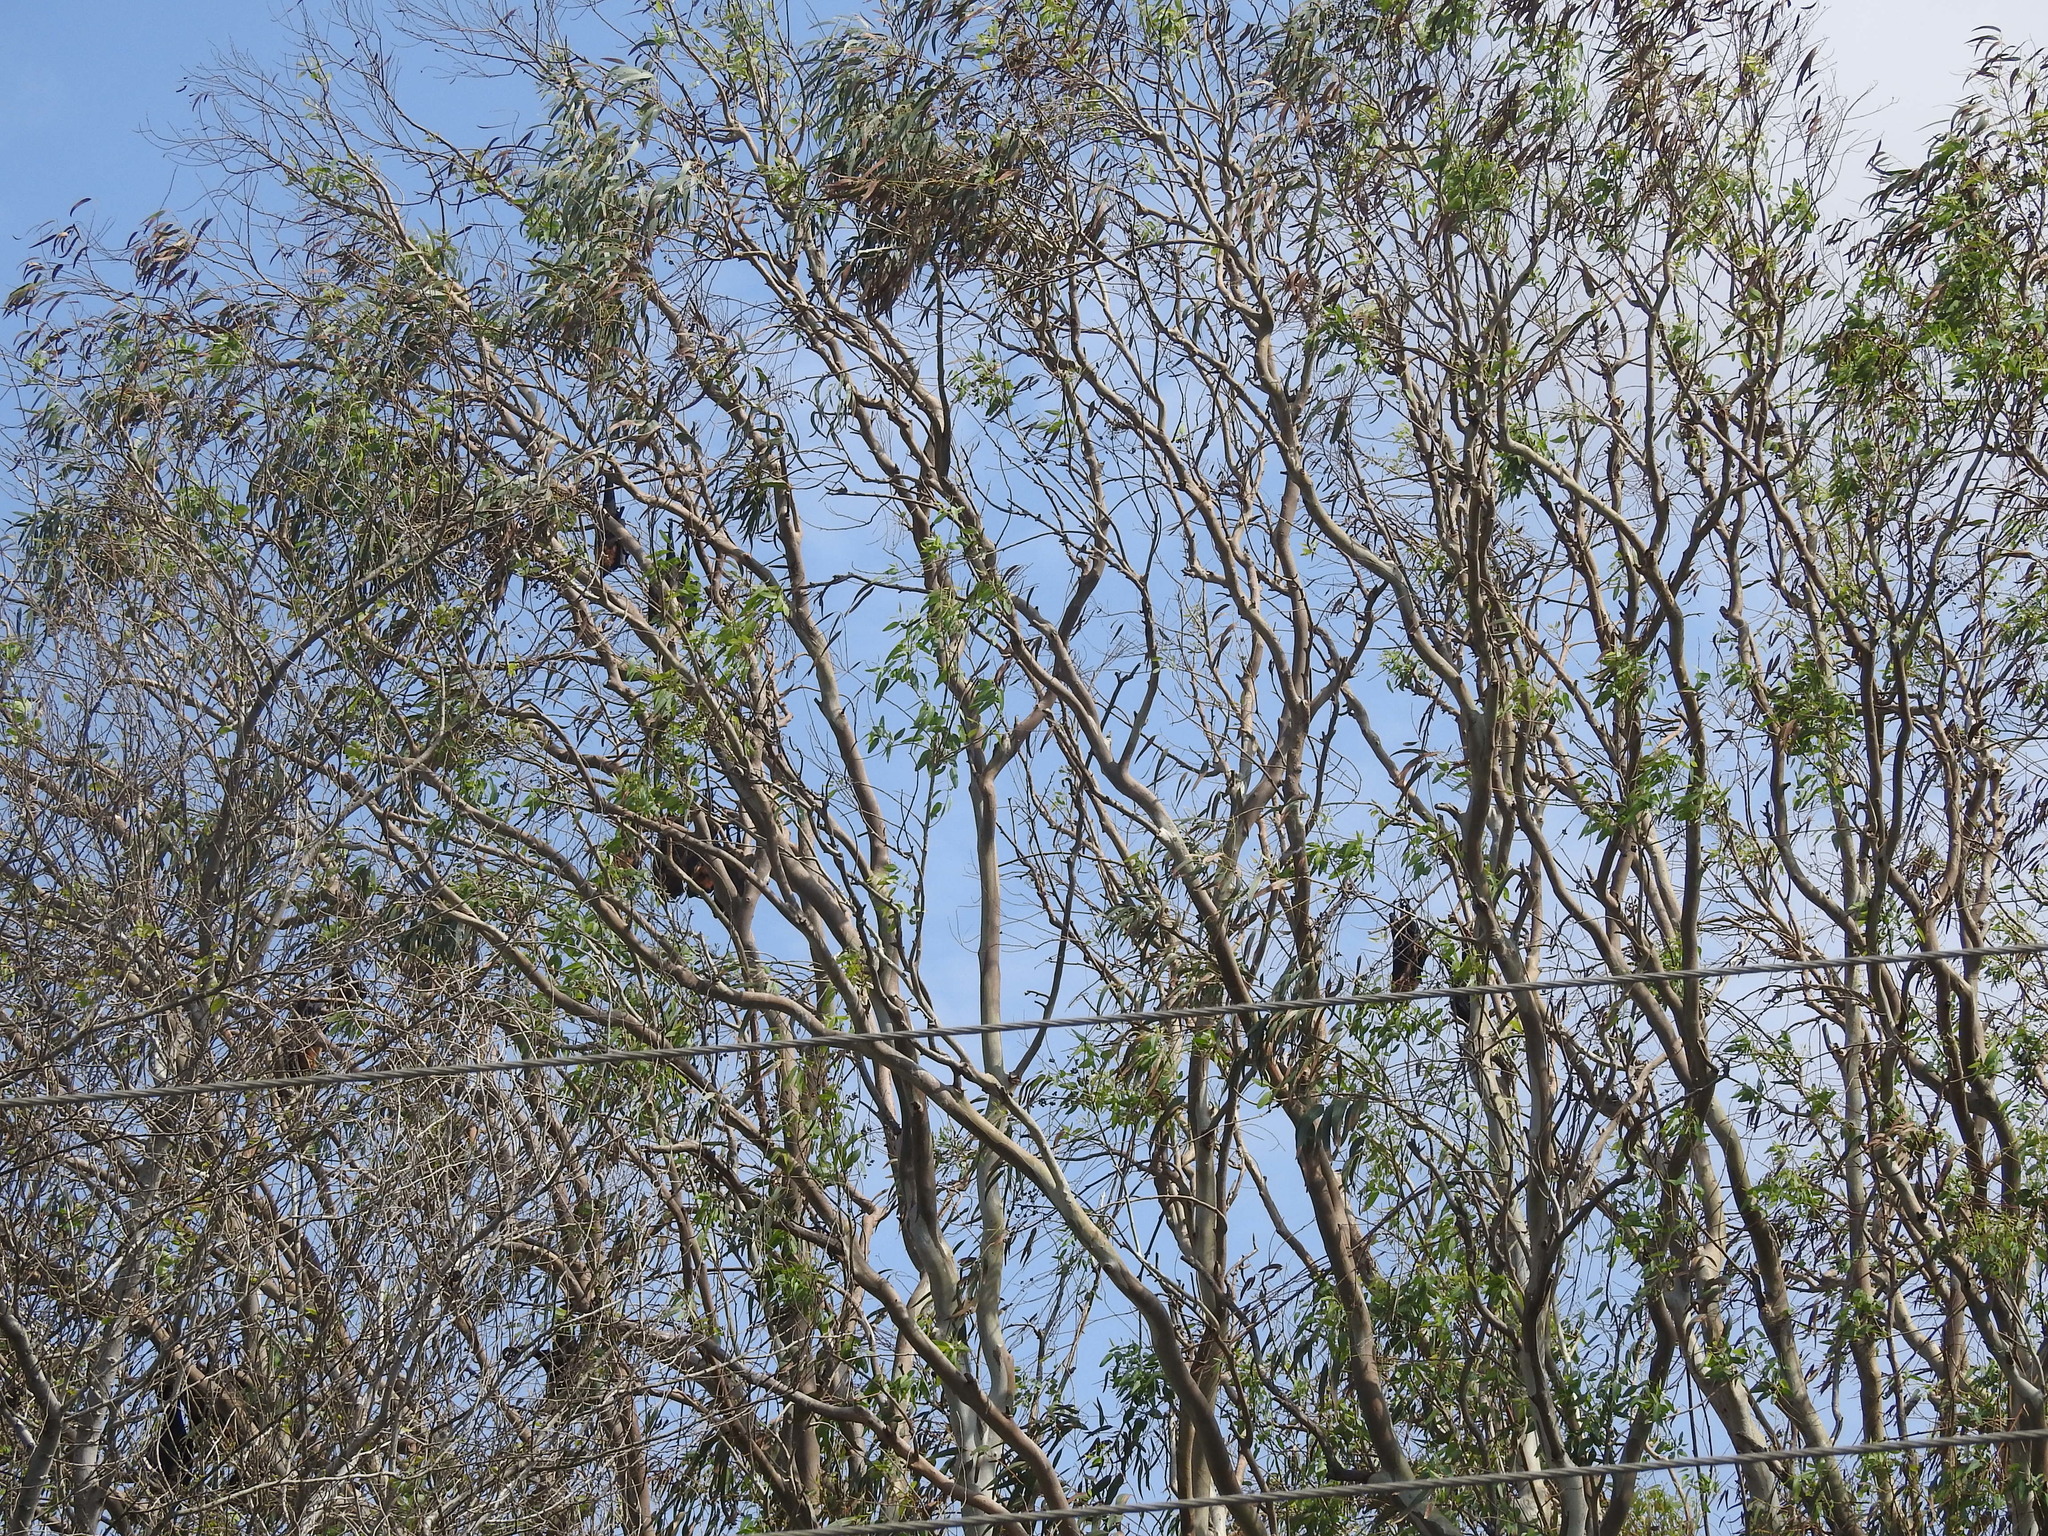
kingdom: Animalia
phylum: Chordata
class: Mammalia
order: Chiroptera
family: Pteropodidae
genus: Pteropus
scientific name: Pteropus vampyrus
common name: Large flying fox
